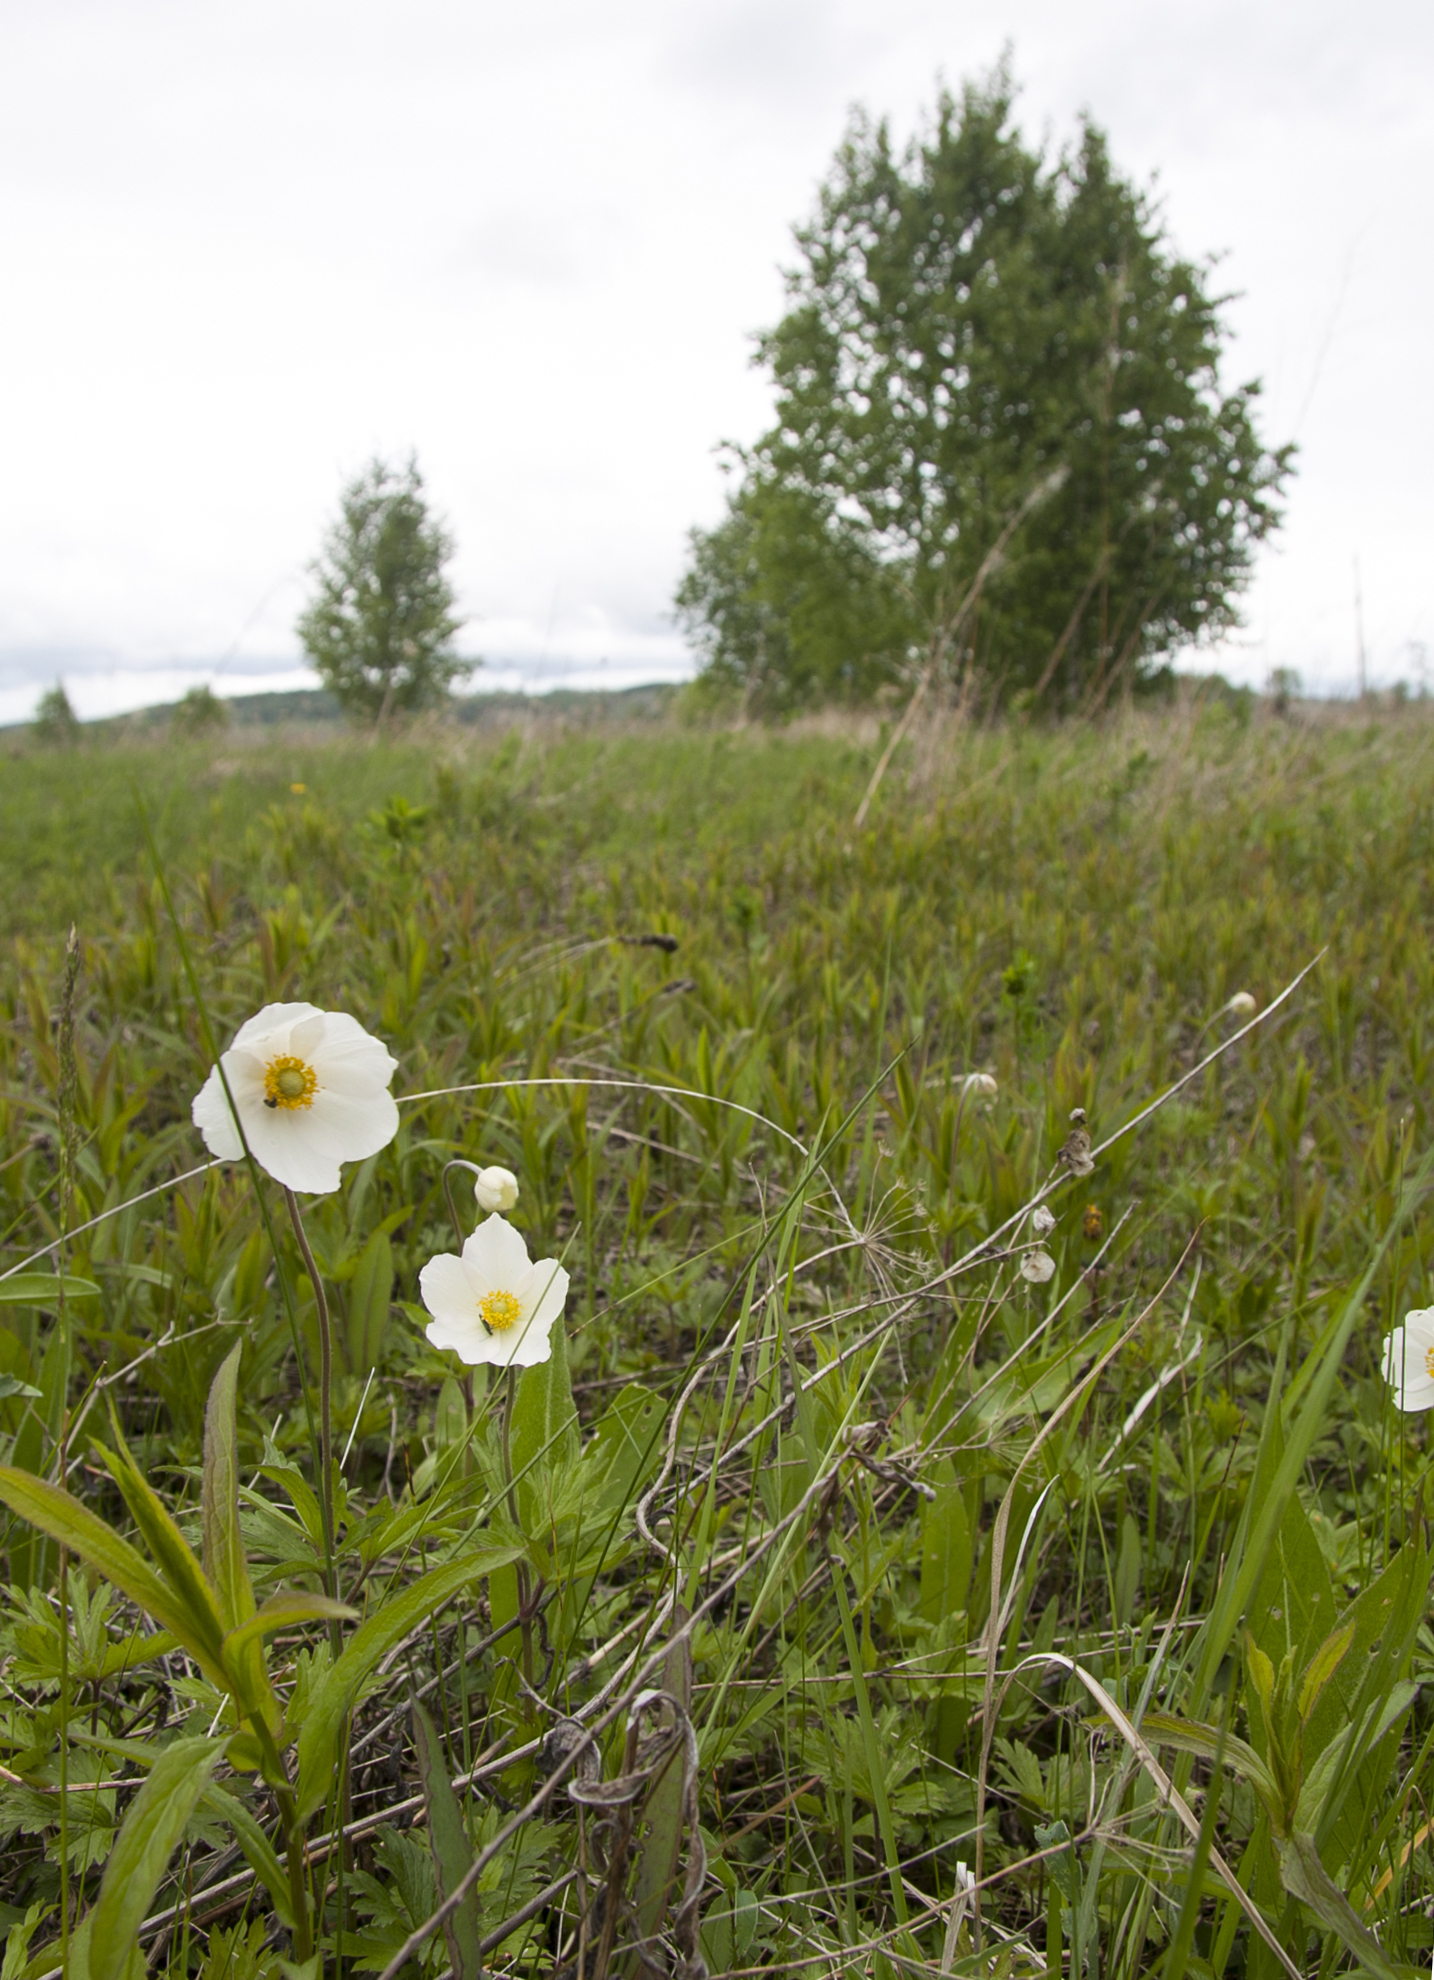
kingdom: Plantae
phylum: Tracheophyta
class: Magnoliopsida
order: Ranunculales
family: Ranunculaceae
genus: Anemone
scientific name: Anemone sylvestris
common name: Snowdrop anemone
